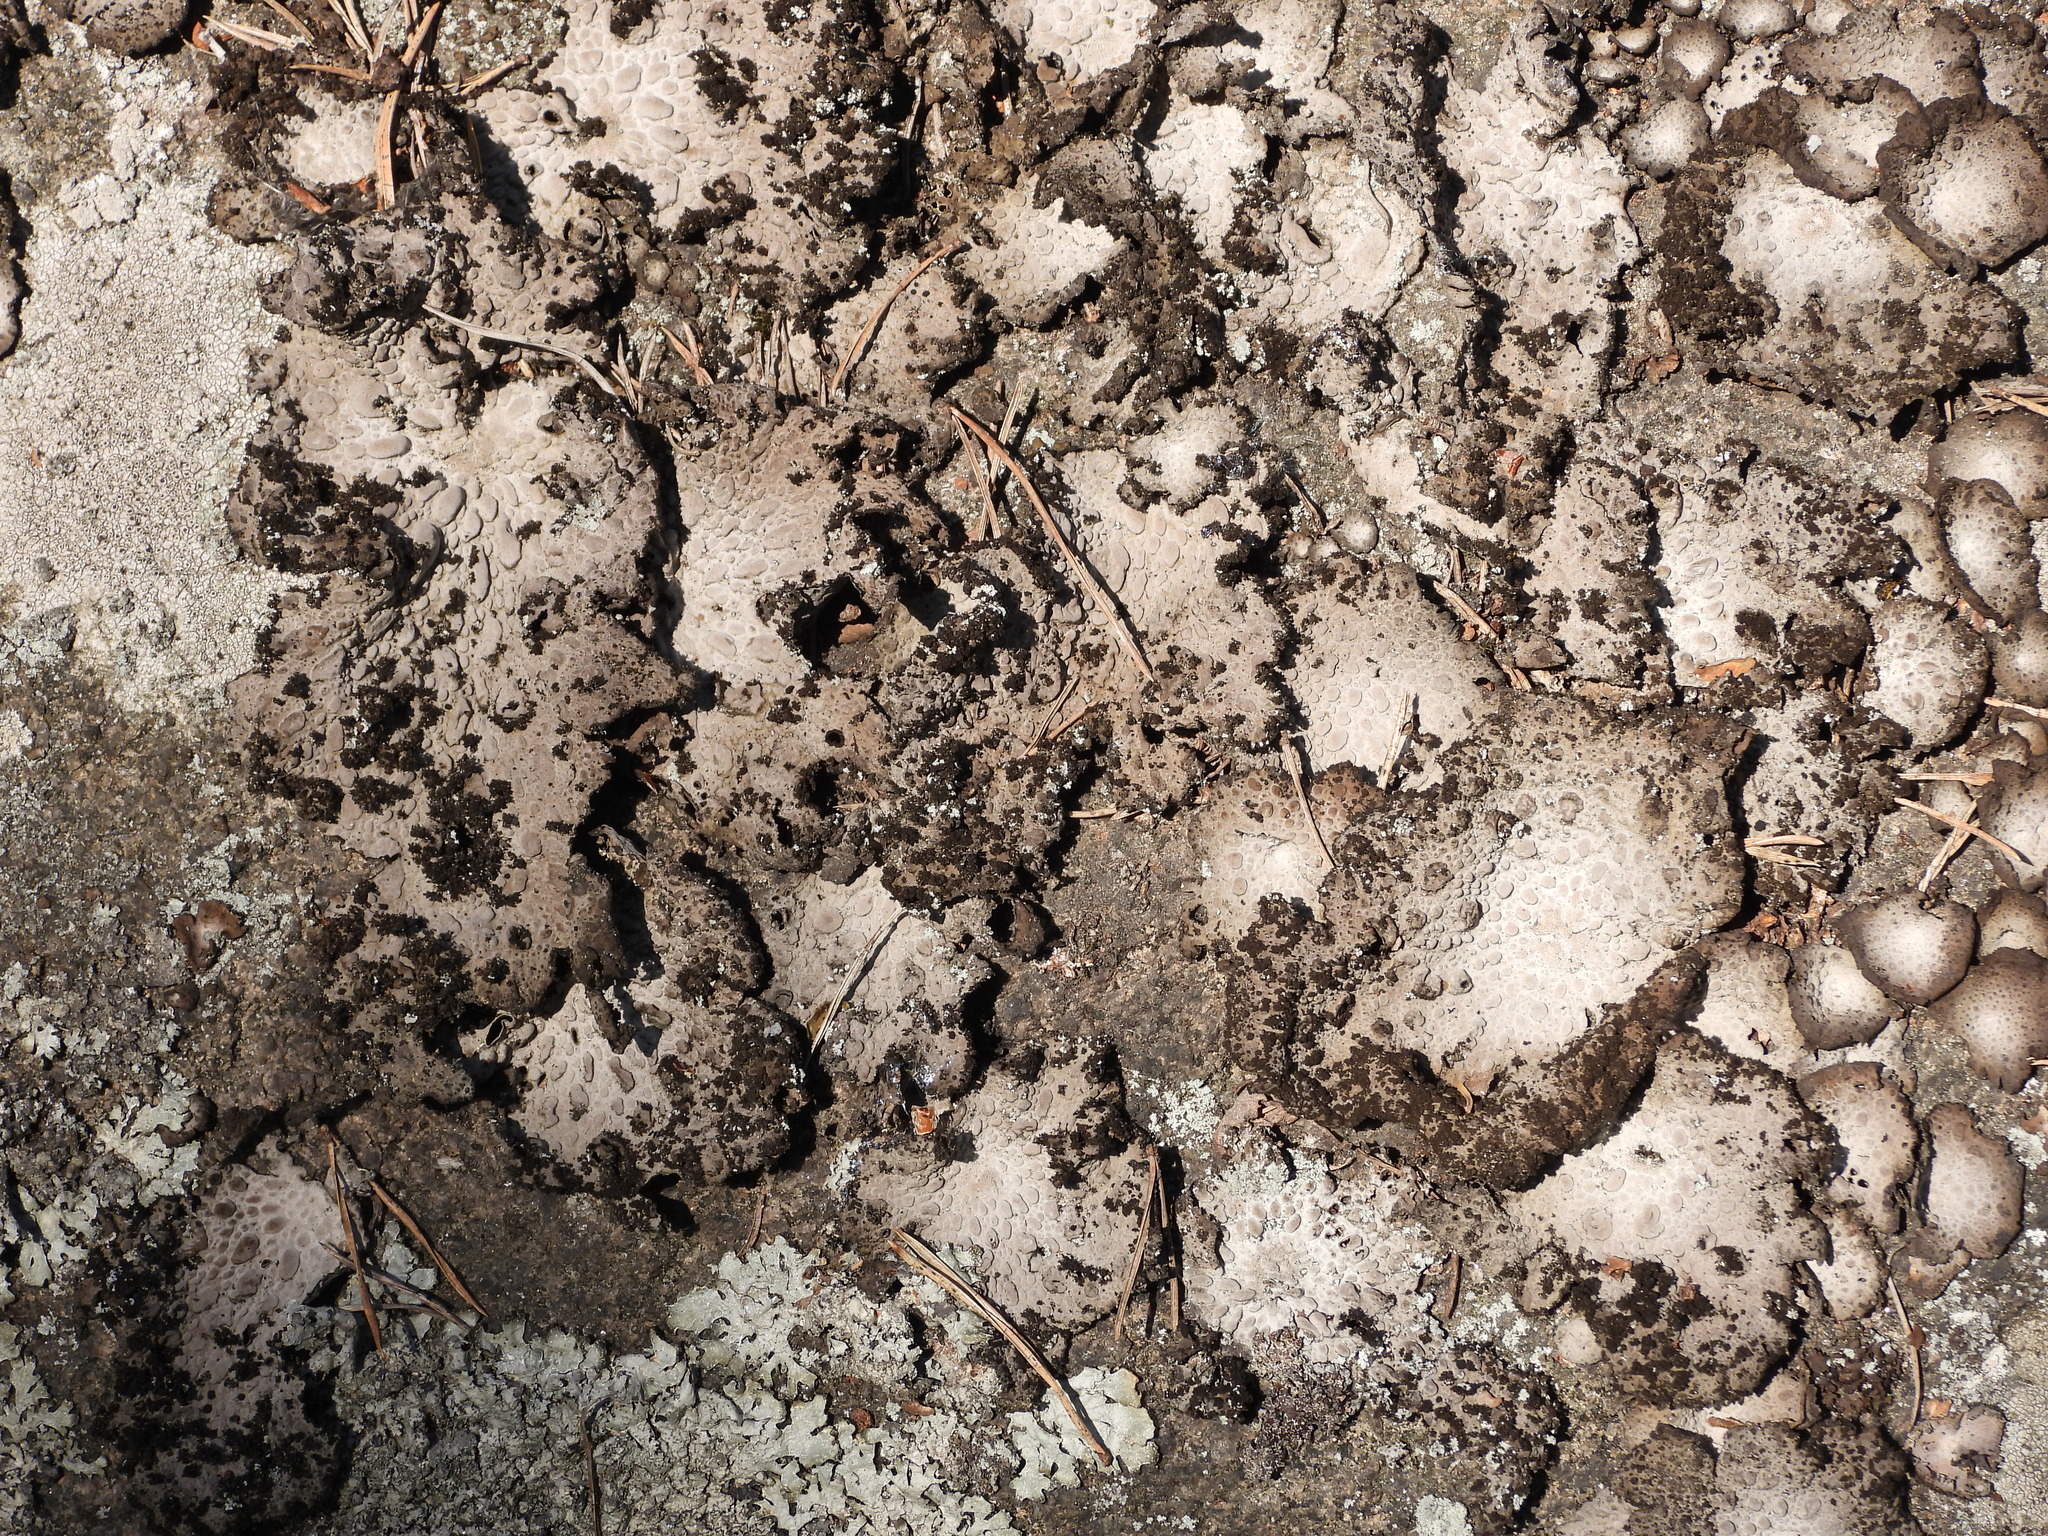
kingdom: Fungi
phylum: Ascomycota
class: Lecanoromycetes
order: Umbilicariales
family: Umbilicariaceae
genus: Lasallia
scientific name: Lasallia pustulata
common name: Blistered toadskin lichen
